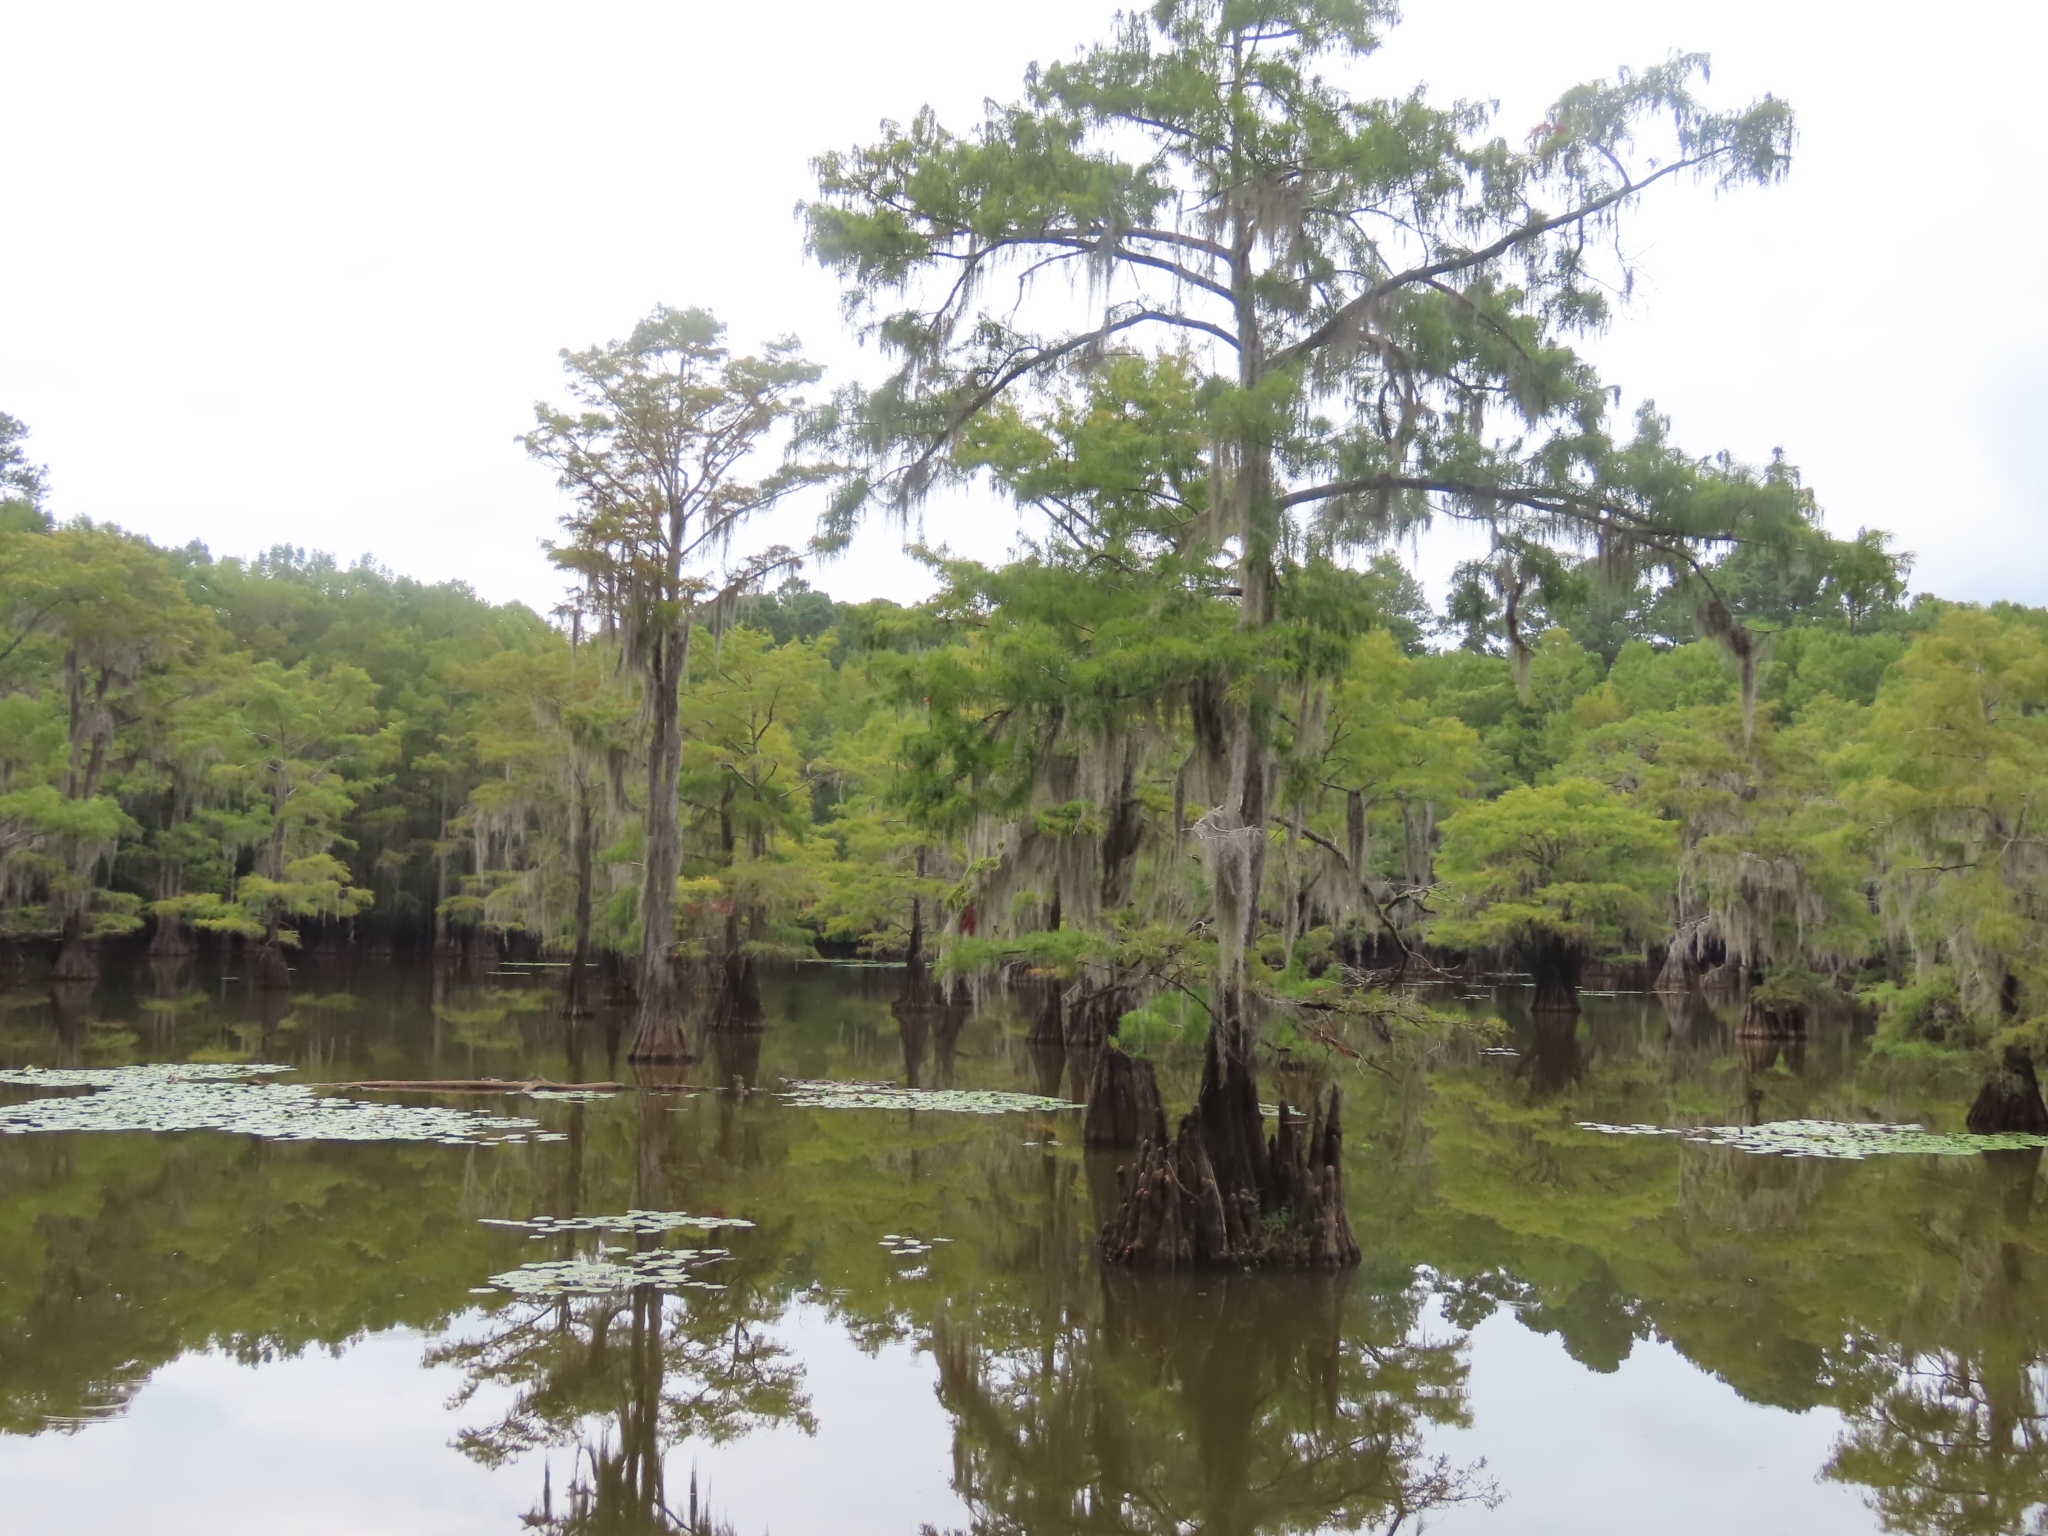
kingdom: Plantae
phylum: Tracheophyta
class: Pinopsida
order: Pinales
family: Cupressaceae
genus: Taxodium
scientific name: Taxodium distichum
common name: Bald cypress
